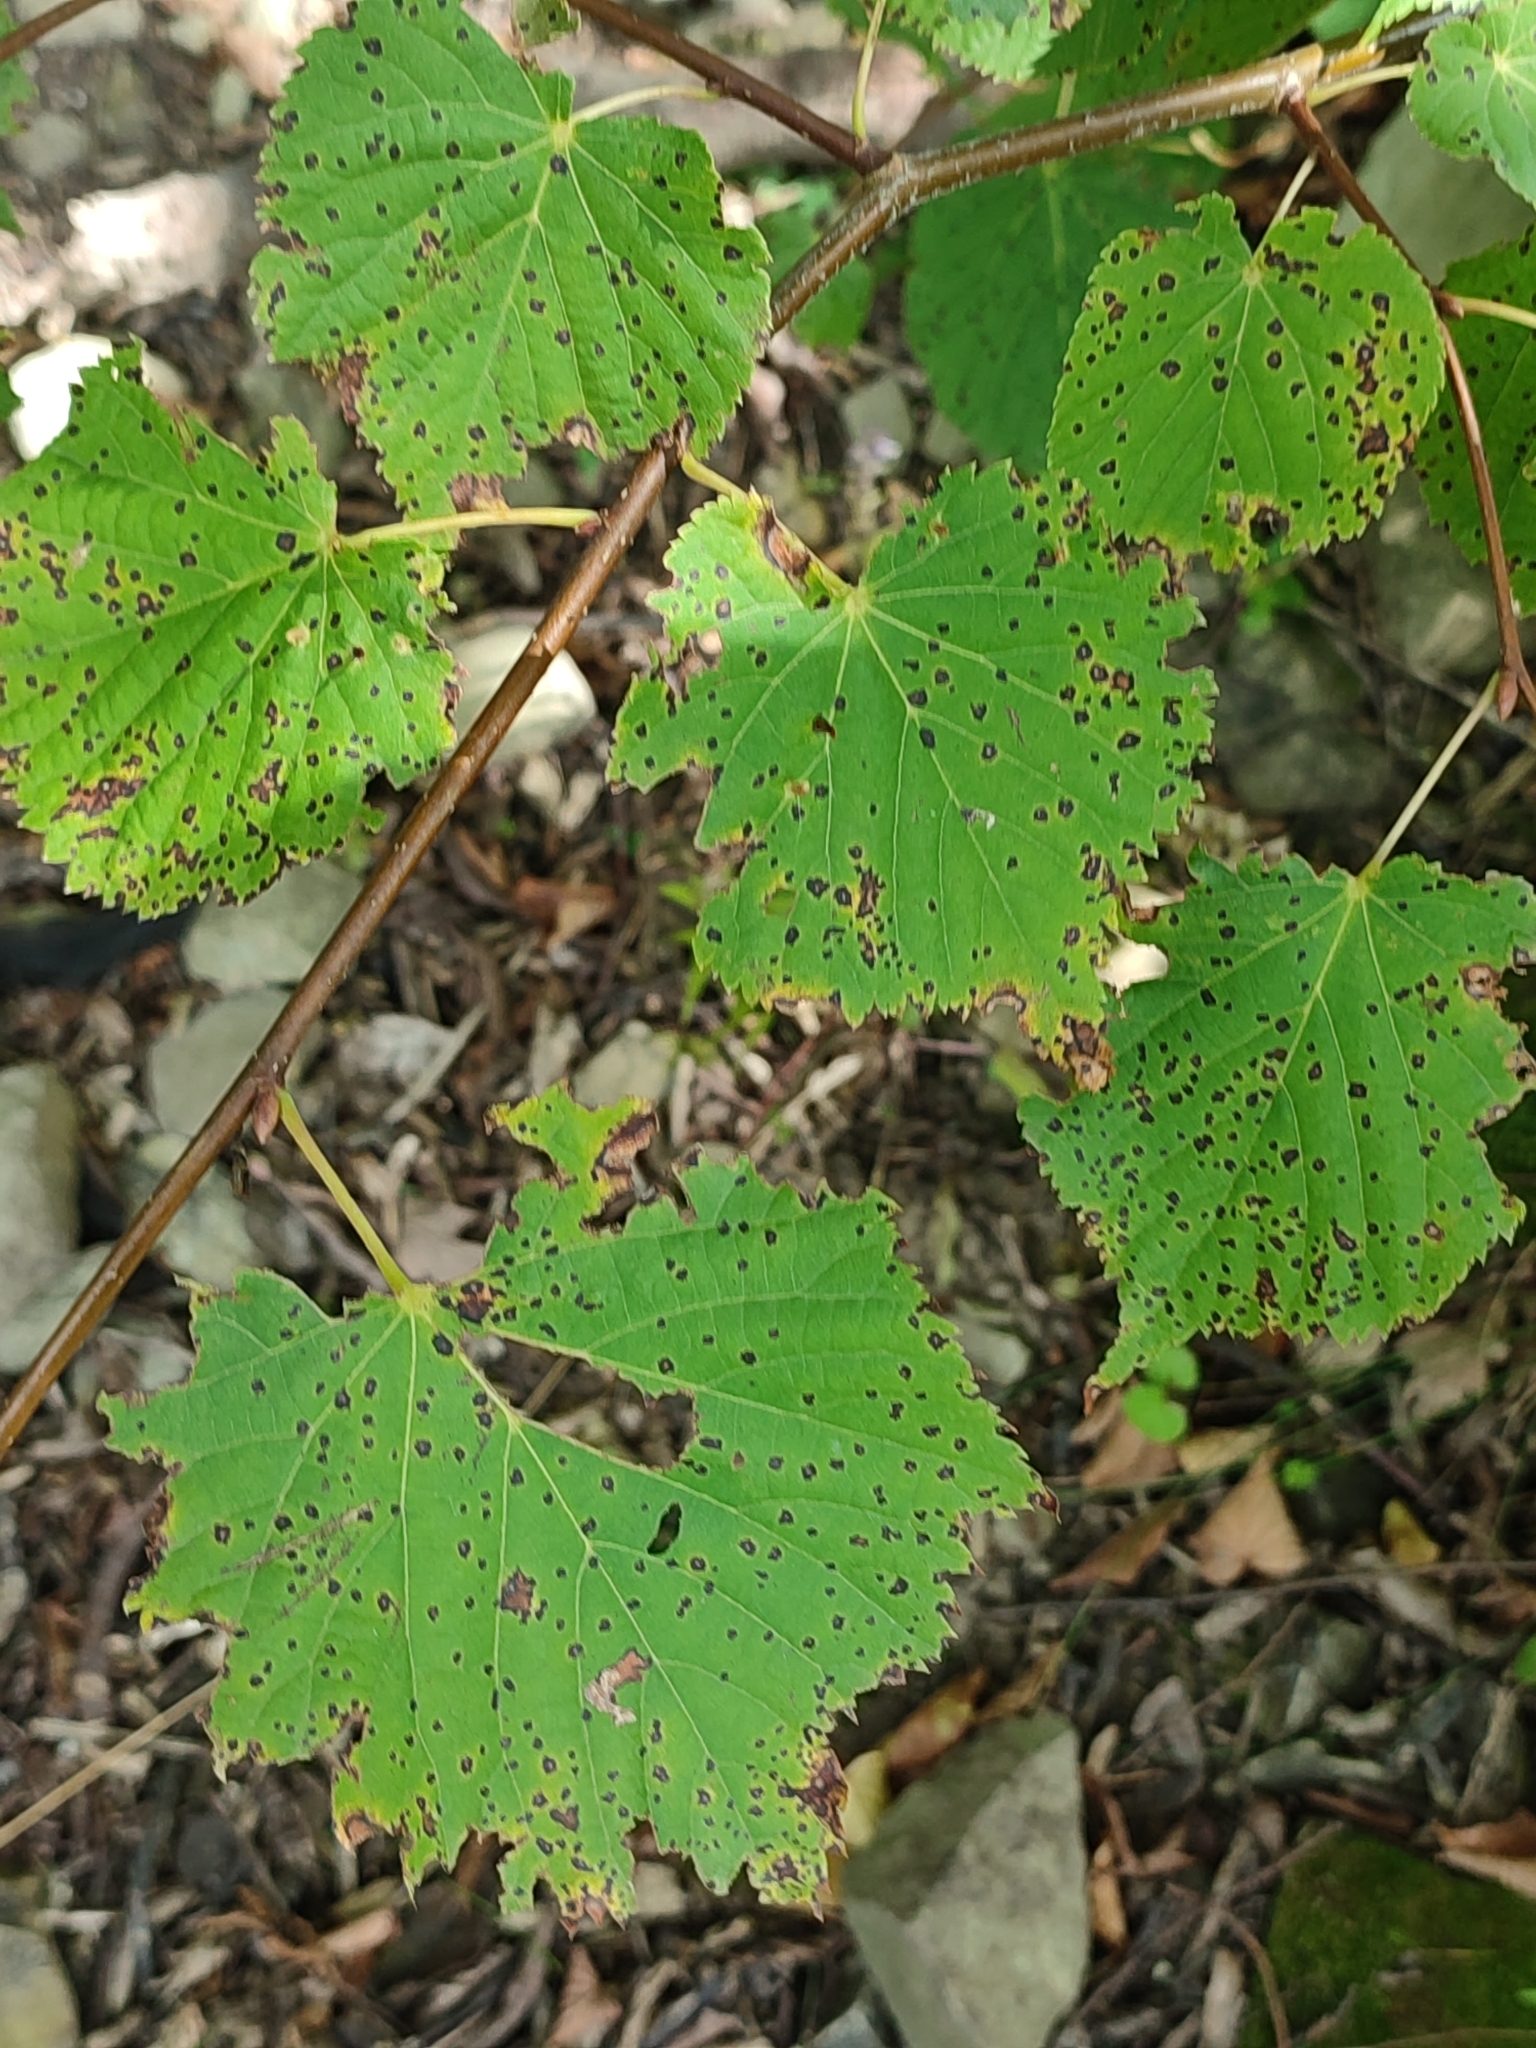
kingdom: Fungi
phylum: Ascomycota
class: Sordariomycetes
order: Diaporthales
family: Gnomoniaceae
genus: Apiognomonia
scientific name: Apiognomonia errabunda
